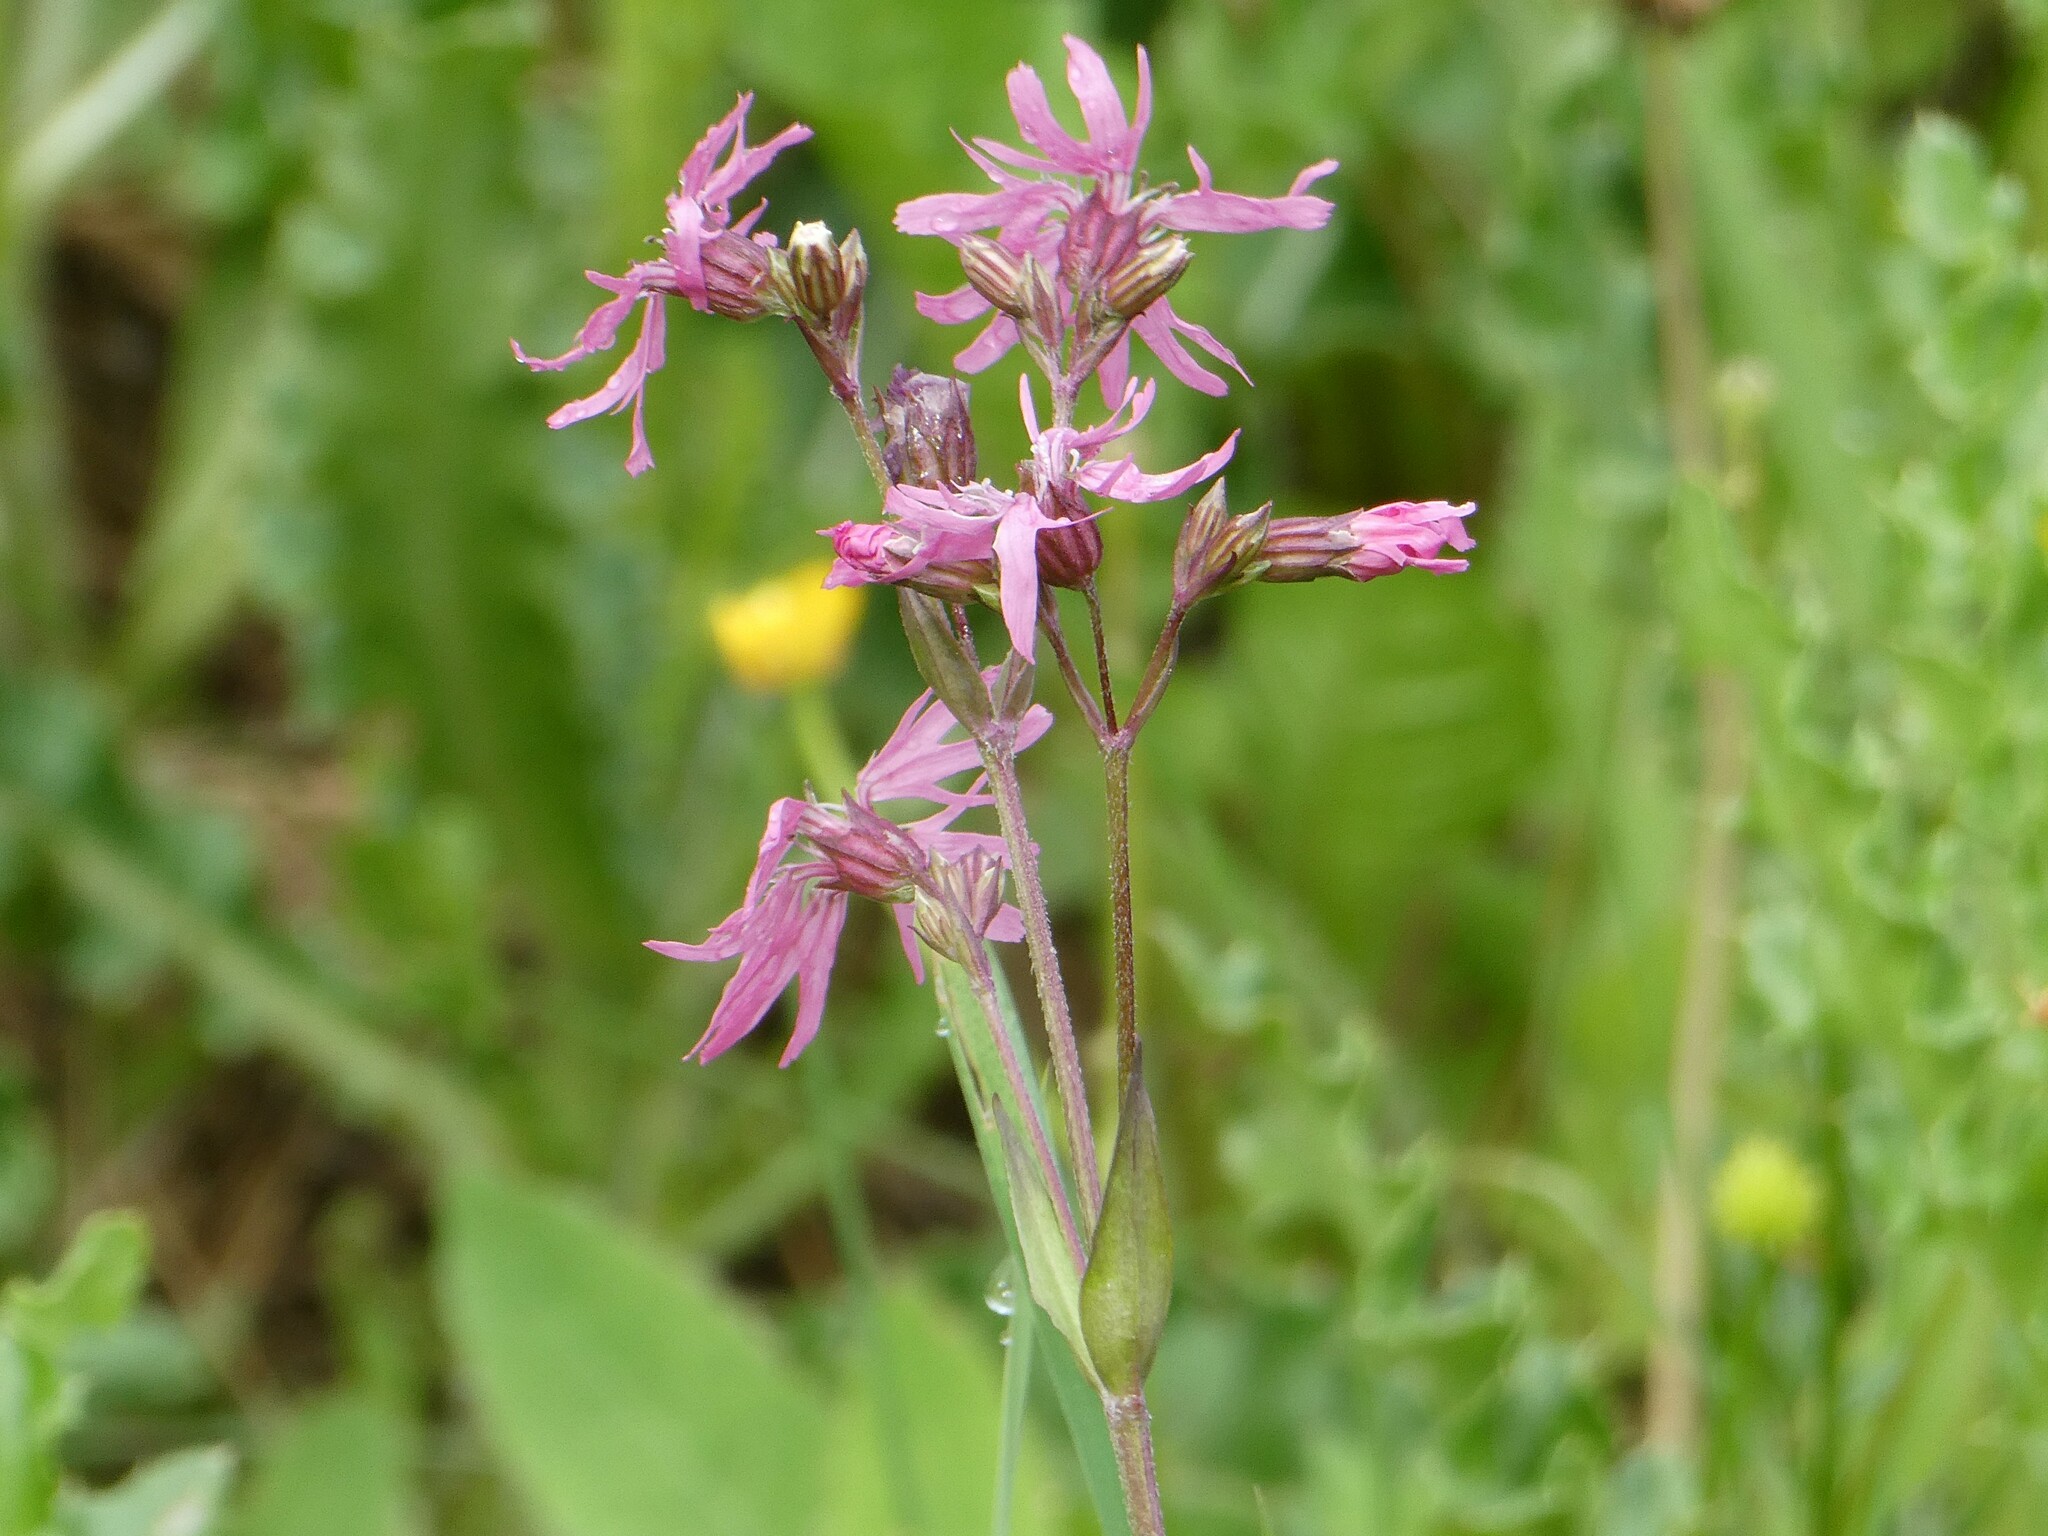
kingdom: Plantae
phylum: Tracheophyta
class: Magnoliopsida
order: Caryophyllales
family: Caryophyllaceae
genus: Silene
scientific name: Silene flos-cuculi
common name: Ragged-robin
